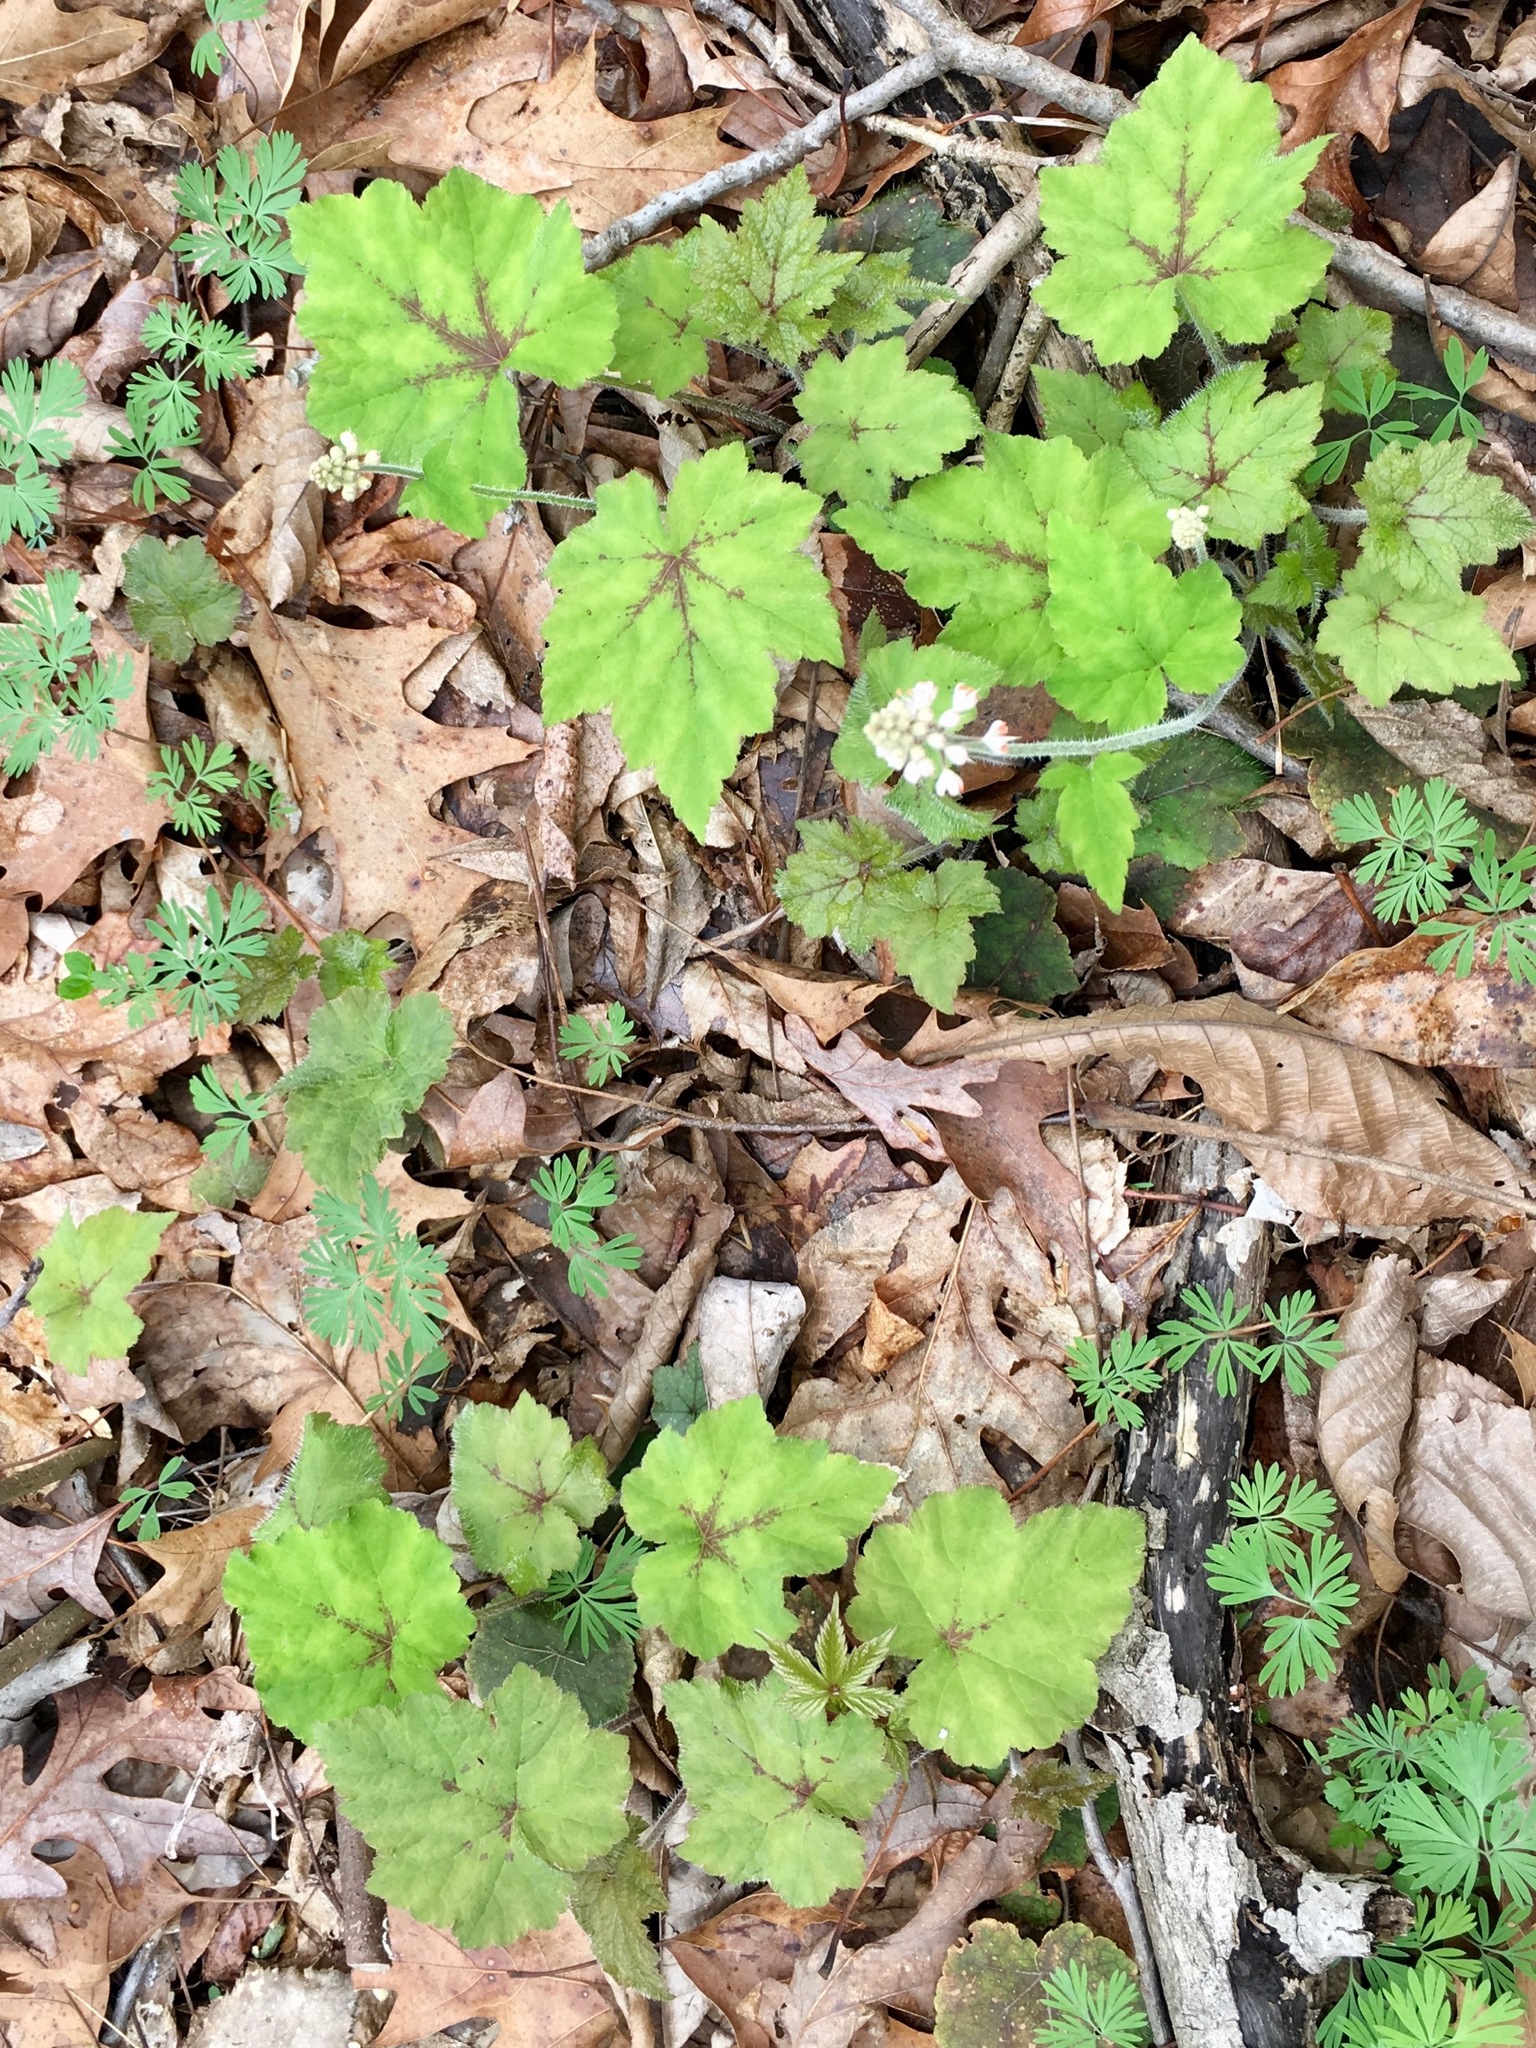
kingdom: Plantae
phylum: Tracheophyta
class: Magnoliopsida
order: Saxifragales
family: Saxifragaceae
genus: Tiarella
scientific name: Tiarella stolonifera
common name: Stoloniferous foamflower
